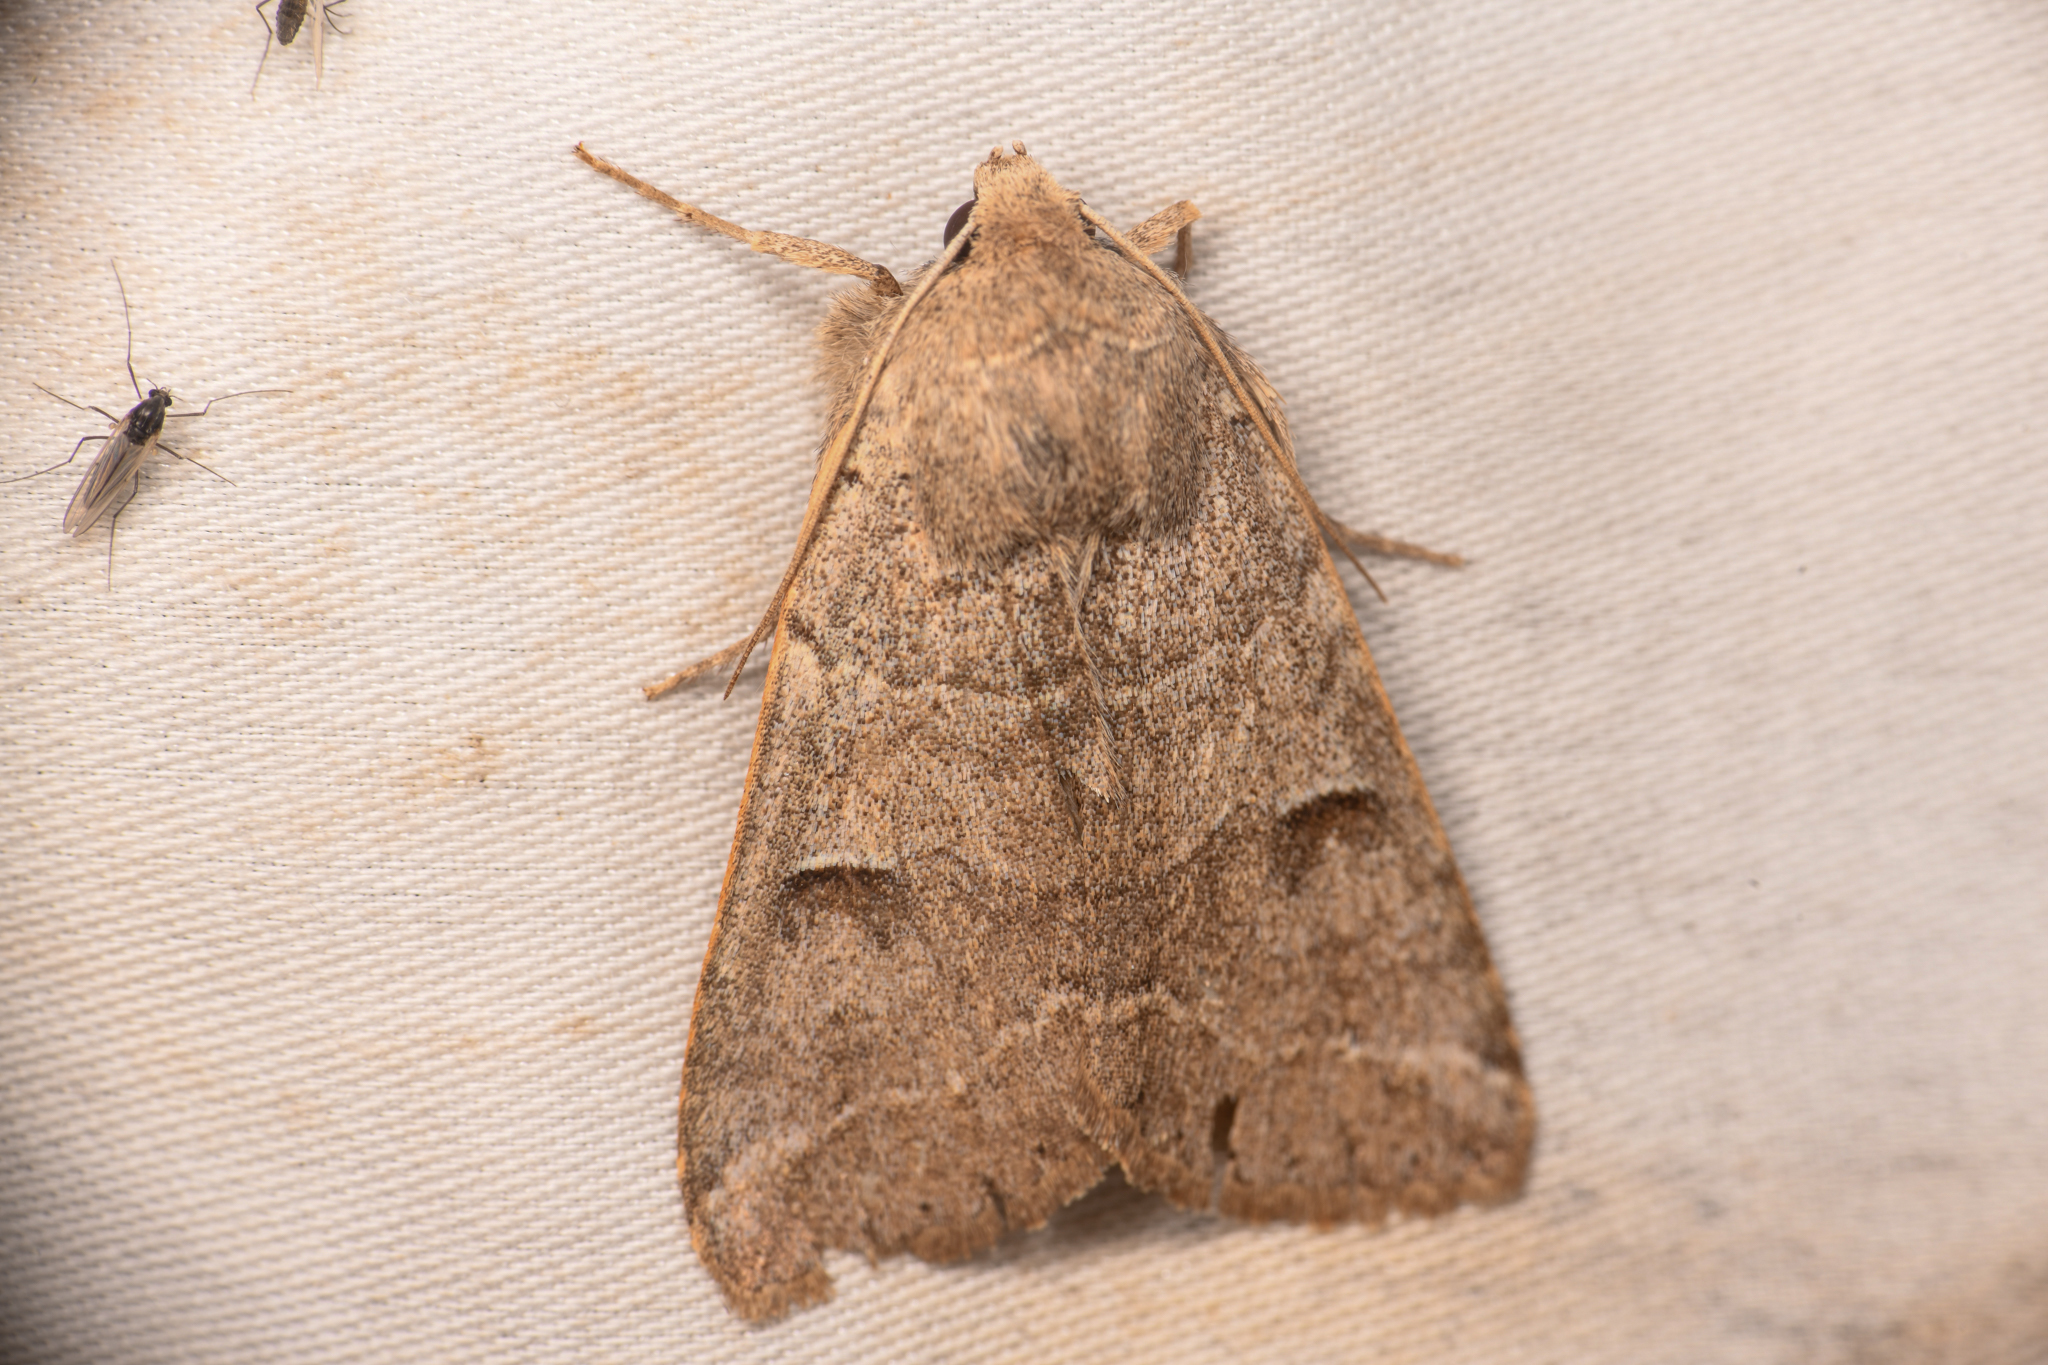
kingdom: Animalia
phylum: Arthropoda
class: Insecta
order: Lepidoptera
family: Erebidae
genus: Cissusa
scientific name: Cissusa indiscreta
